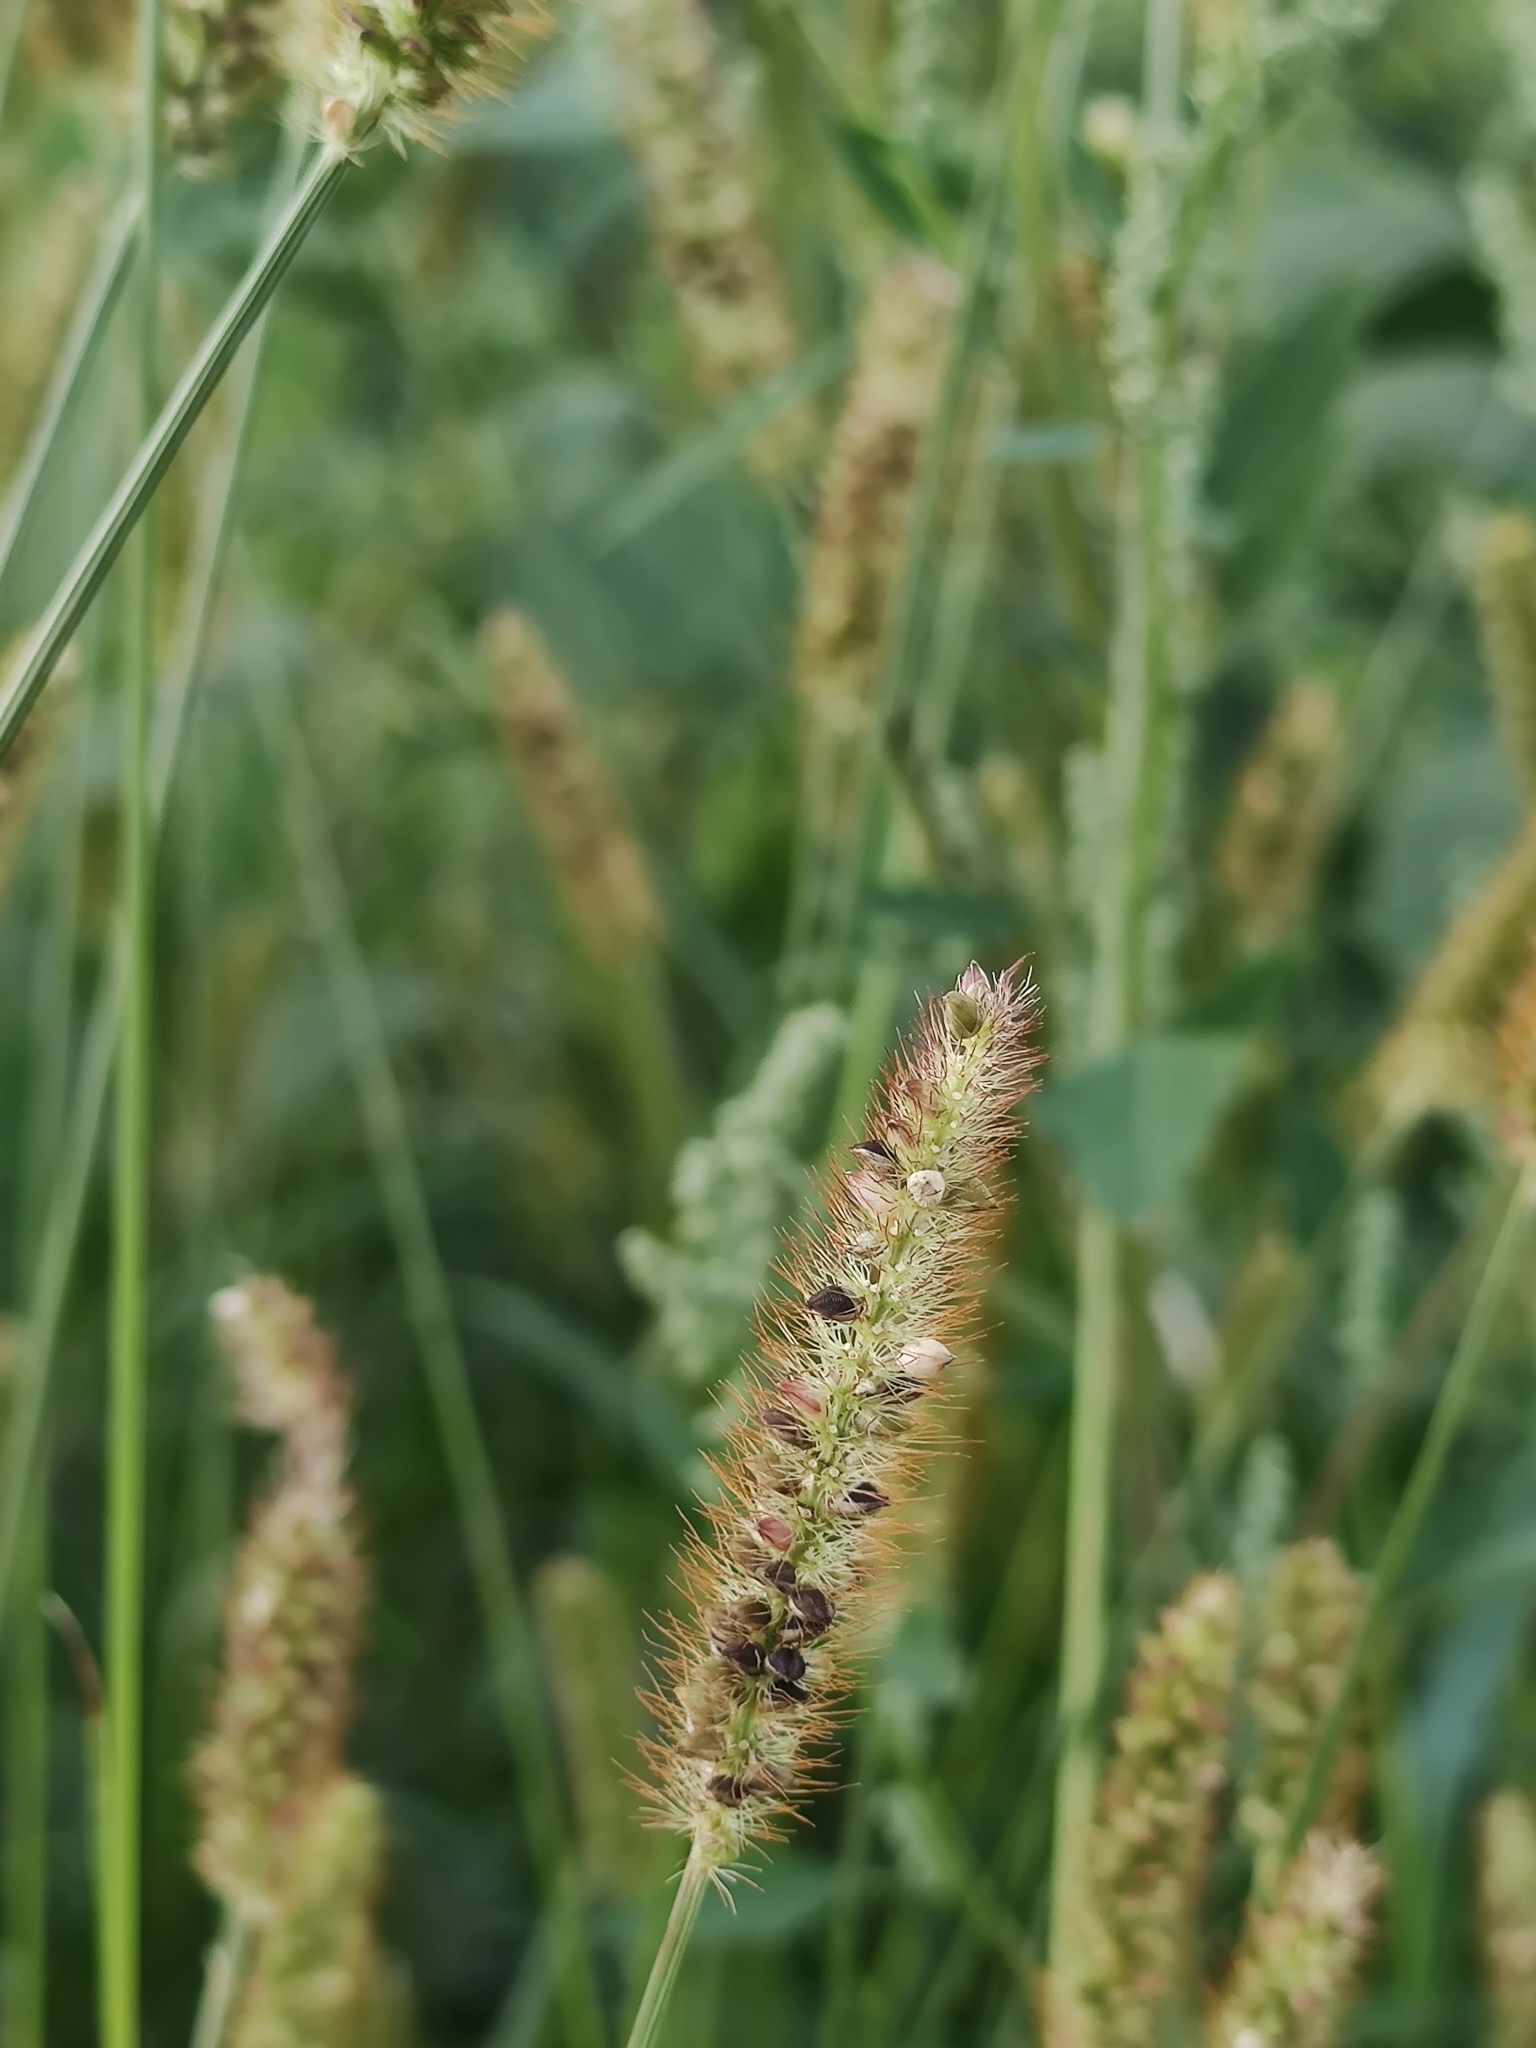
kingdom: Plantae
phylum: Tracheophyta
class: Liliopsida
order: Poales
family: Poaceae
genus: Setaria
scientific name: Setaria pumila
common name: Yellow bristle-grass
